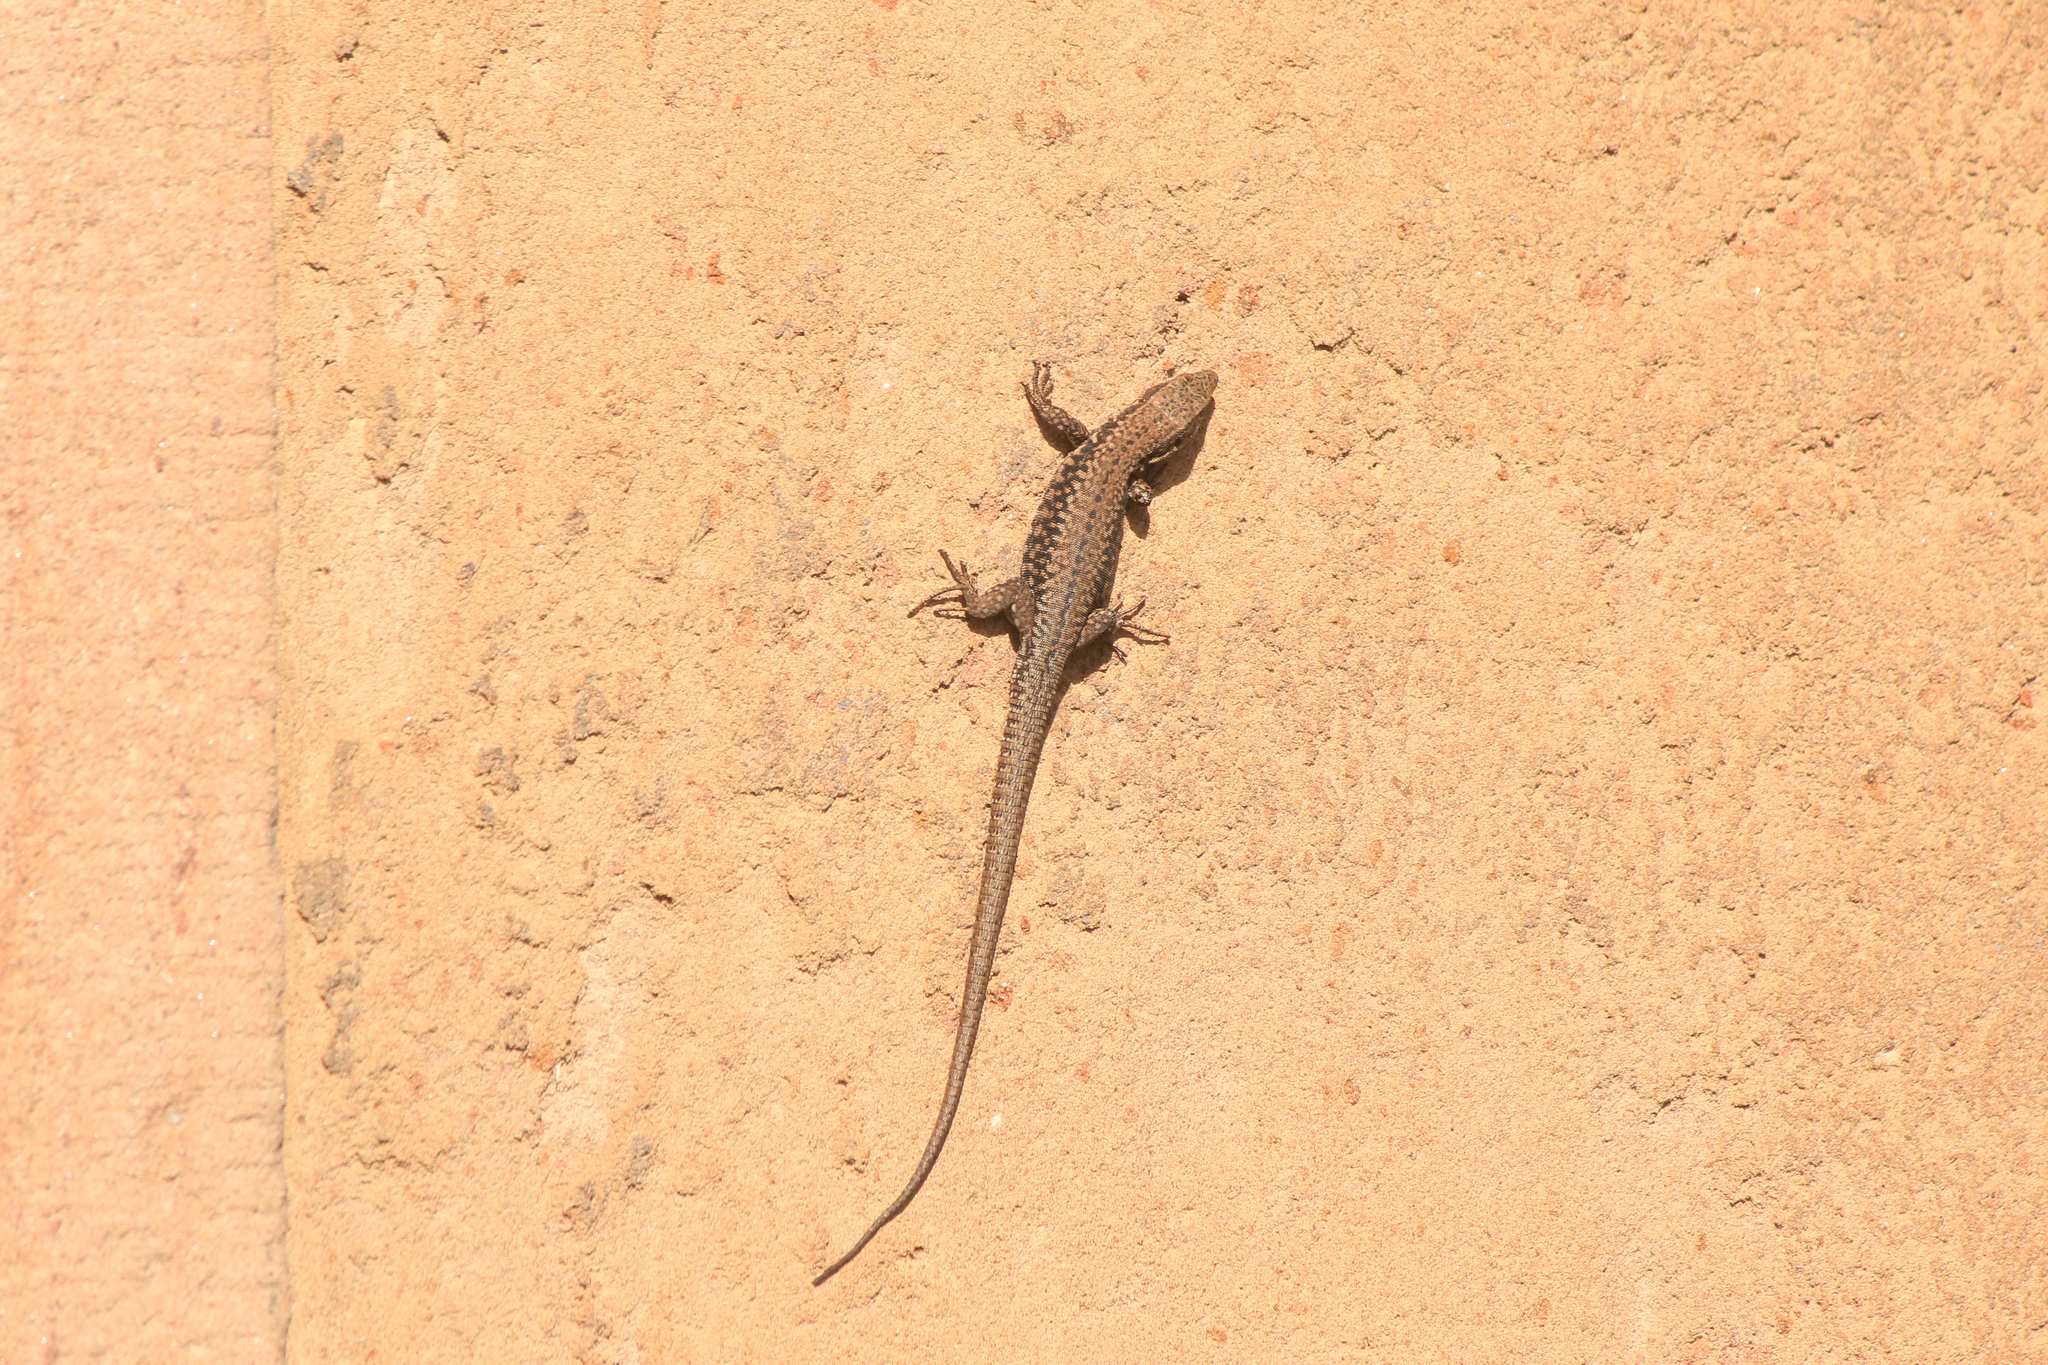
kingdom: Animalia
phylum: Chordata
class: Squamata
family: Lacertidae
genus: Podarcis
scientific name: Podarcis muralis
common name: Common wall lizard
